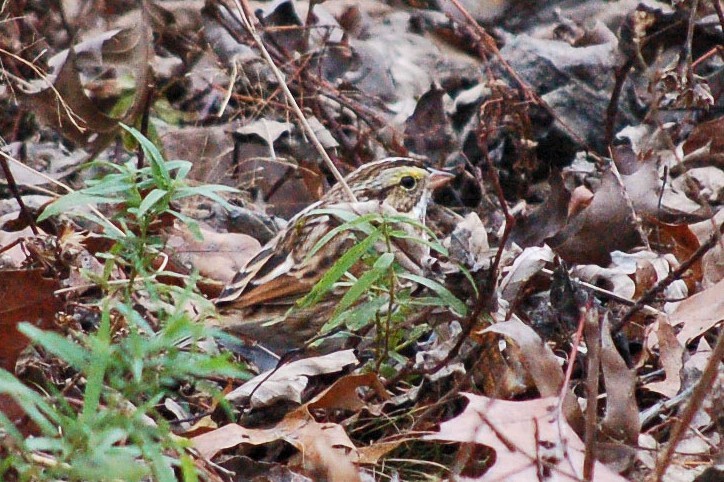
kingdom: Animalia
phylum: Chordata
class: Aves
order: Passeriformes
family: Passerellidae
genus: Passerculus
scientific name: Passerculus sandwichensis
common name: Savannah sparrow
